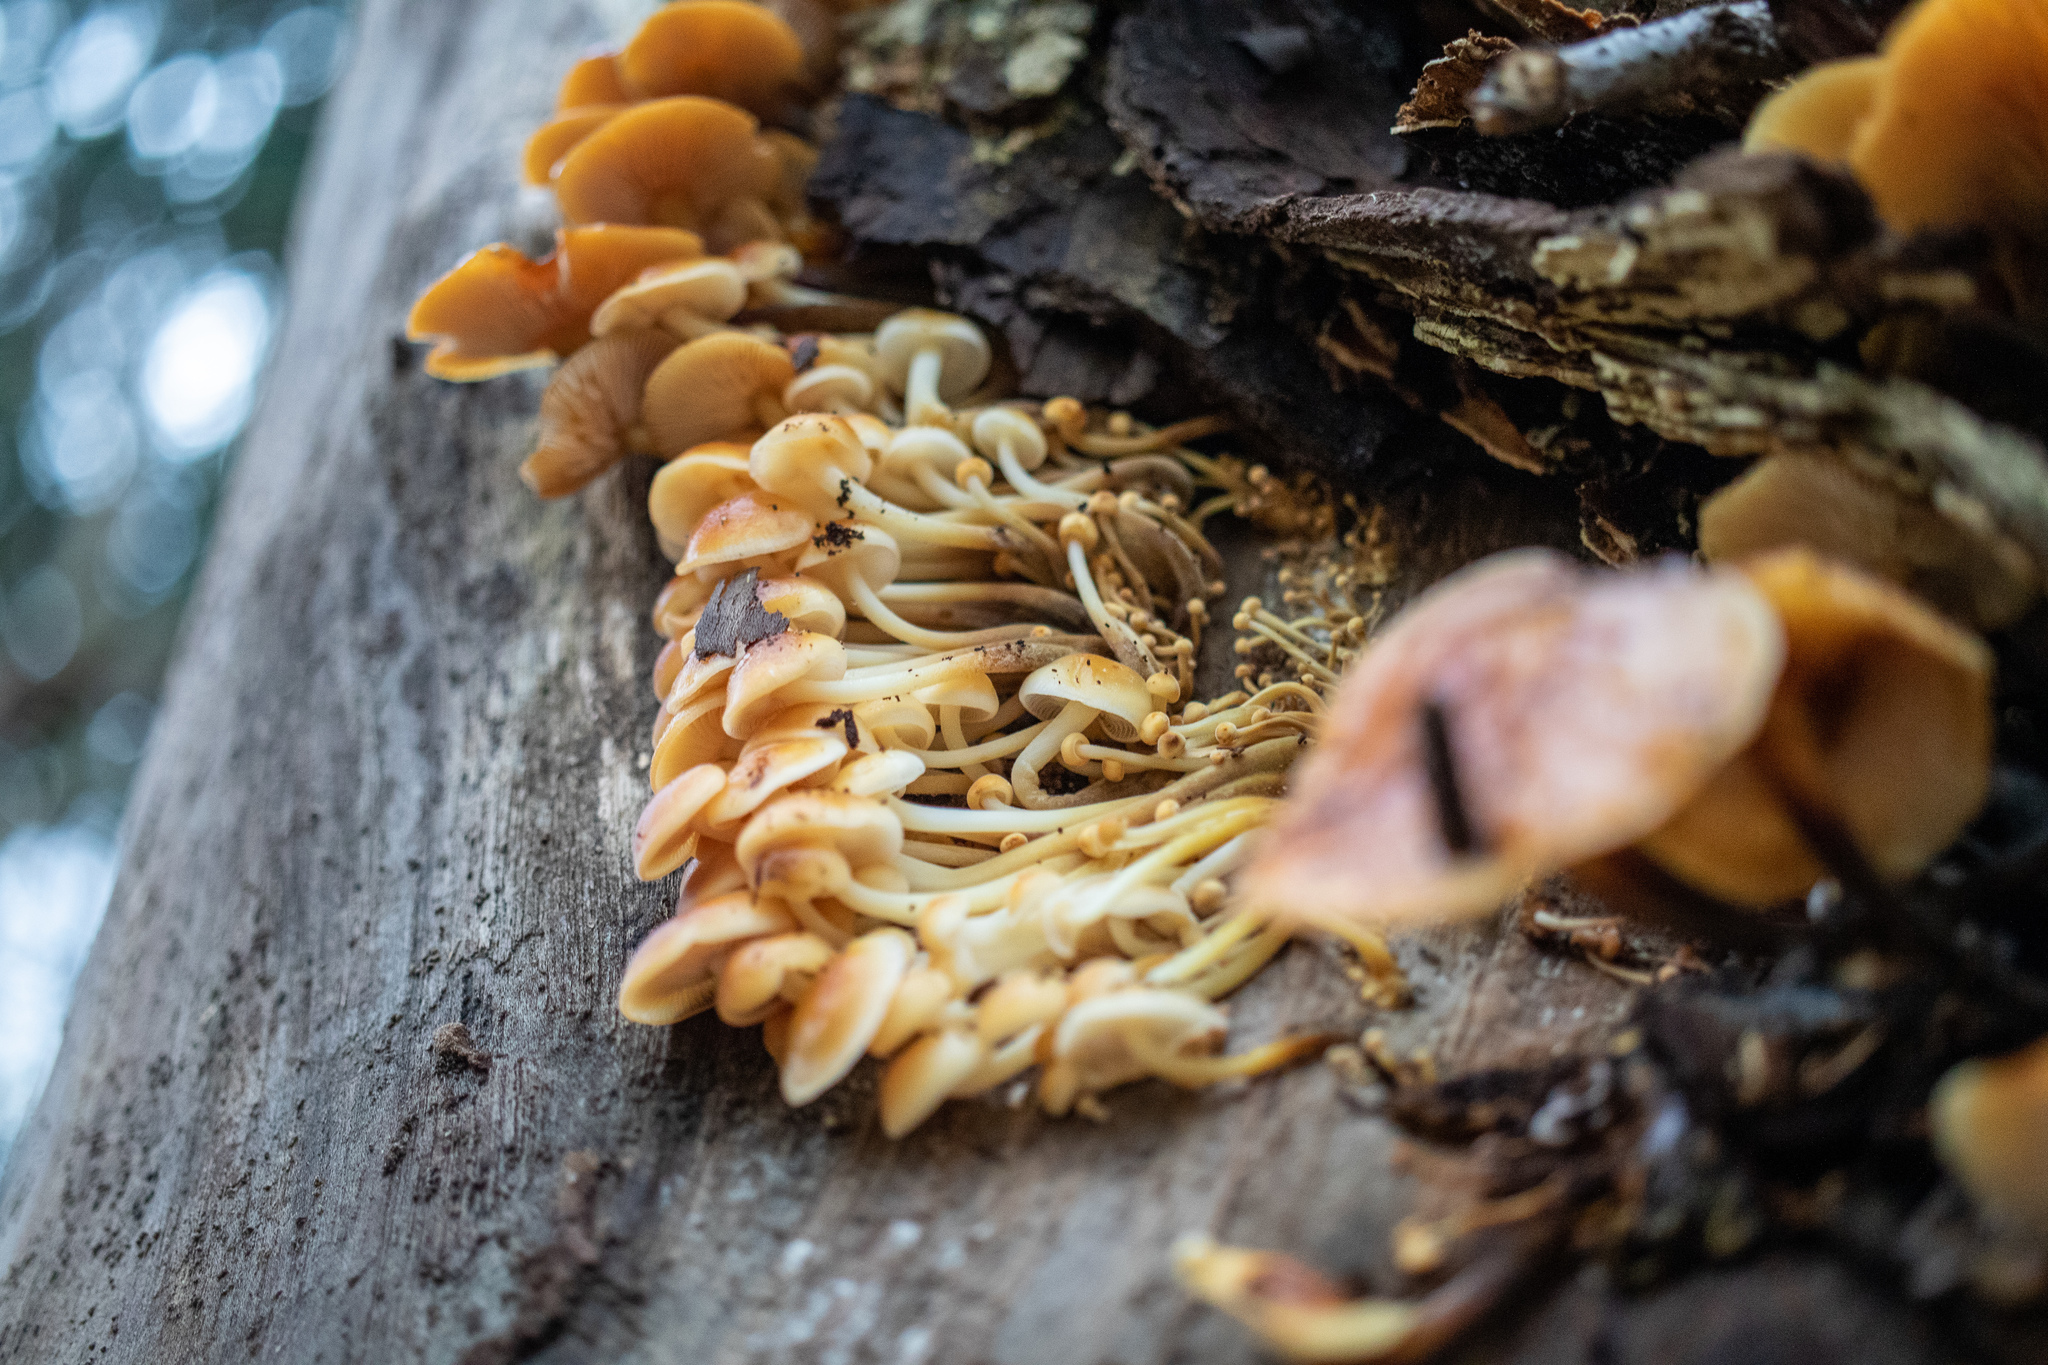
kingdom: Fungi
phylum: Basidiomycota
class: Agaricomycetes
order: Agaricales
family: Physalacriaceae
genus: Flammulina
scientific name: Flammulina velutipes
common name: Velvet shank
